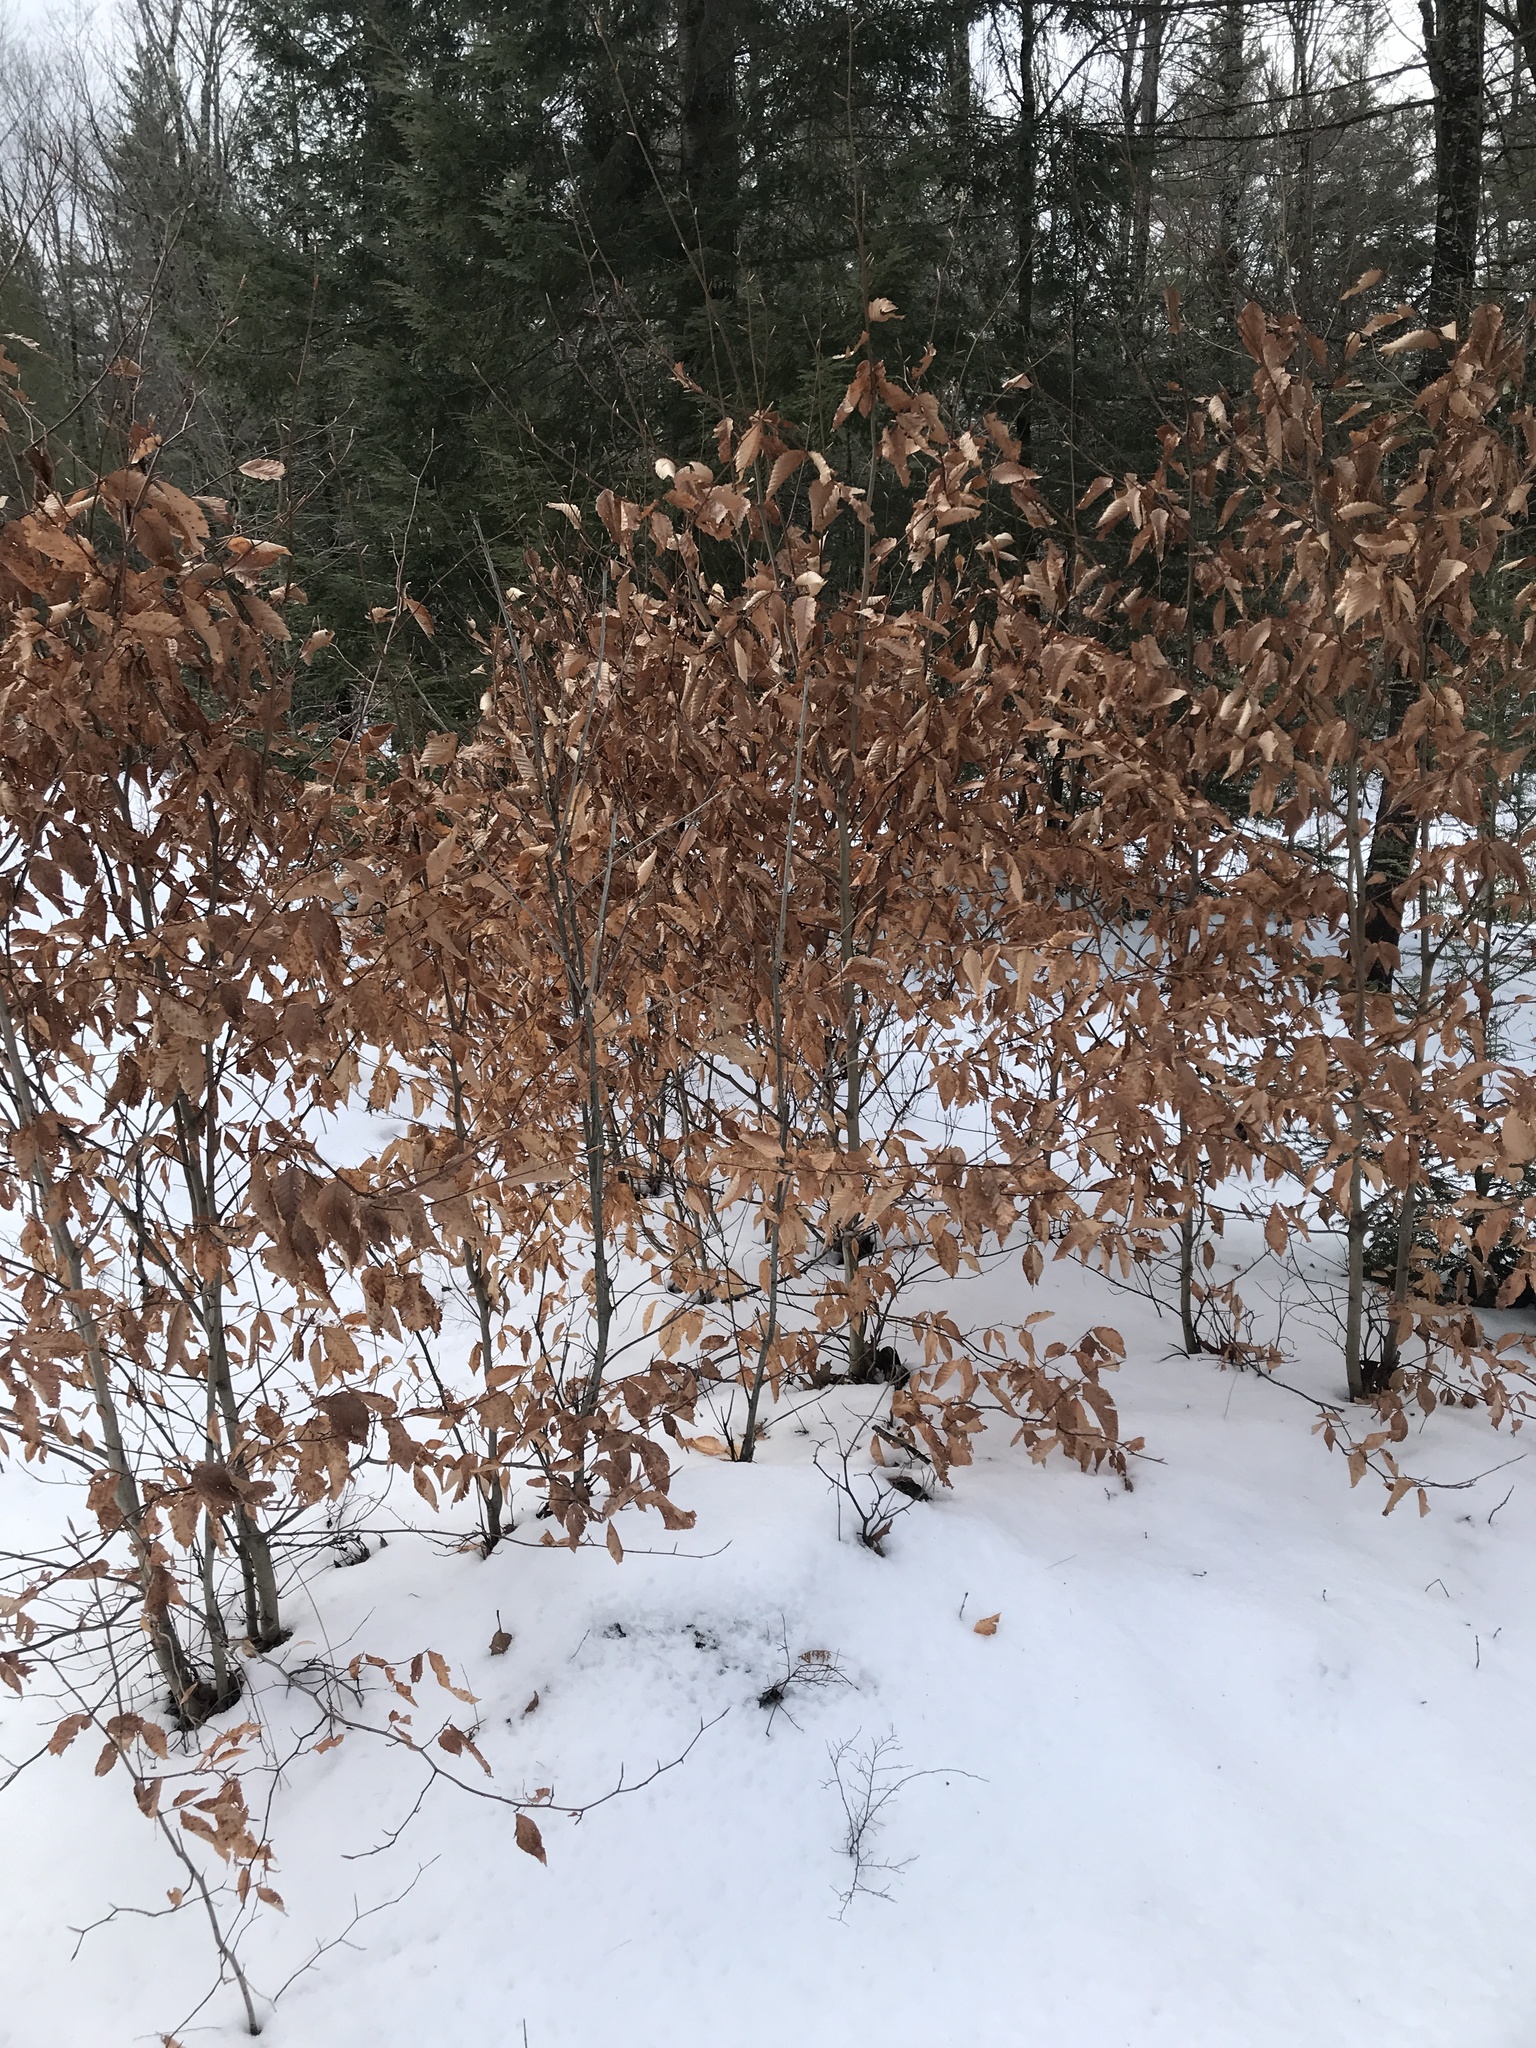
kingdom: Plantae
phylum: Tracheophyta
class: Magnoliopsida
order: Fagales
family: Fagaceae
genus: Fagus
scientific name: Fagus grandifolia
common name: American beech
